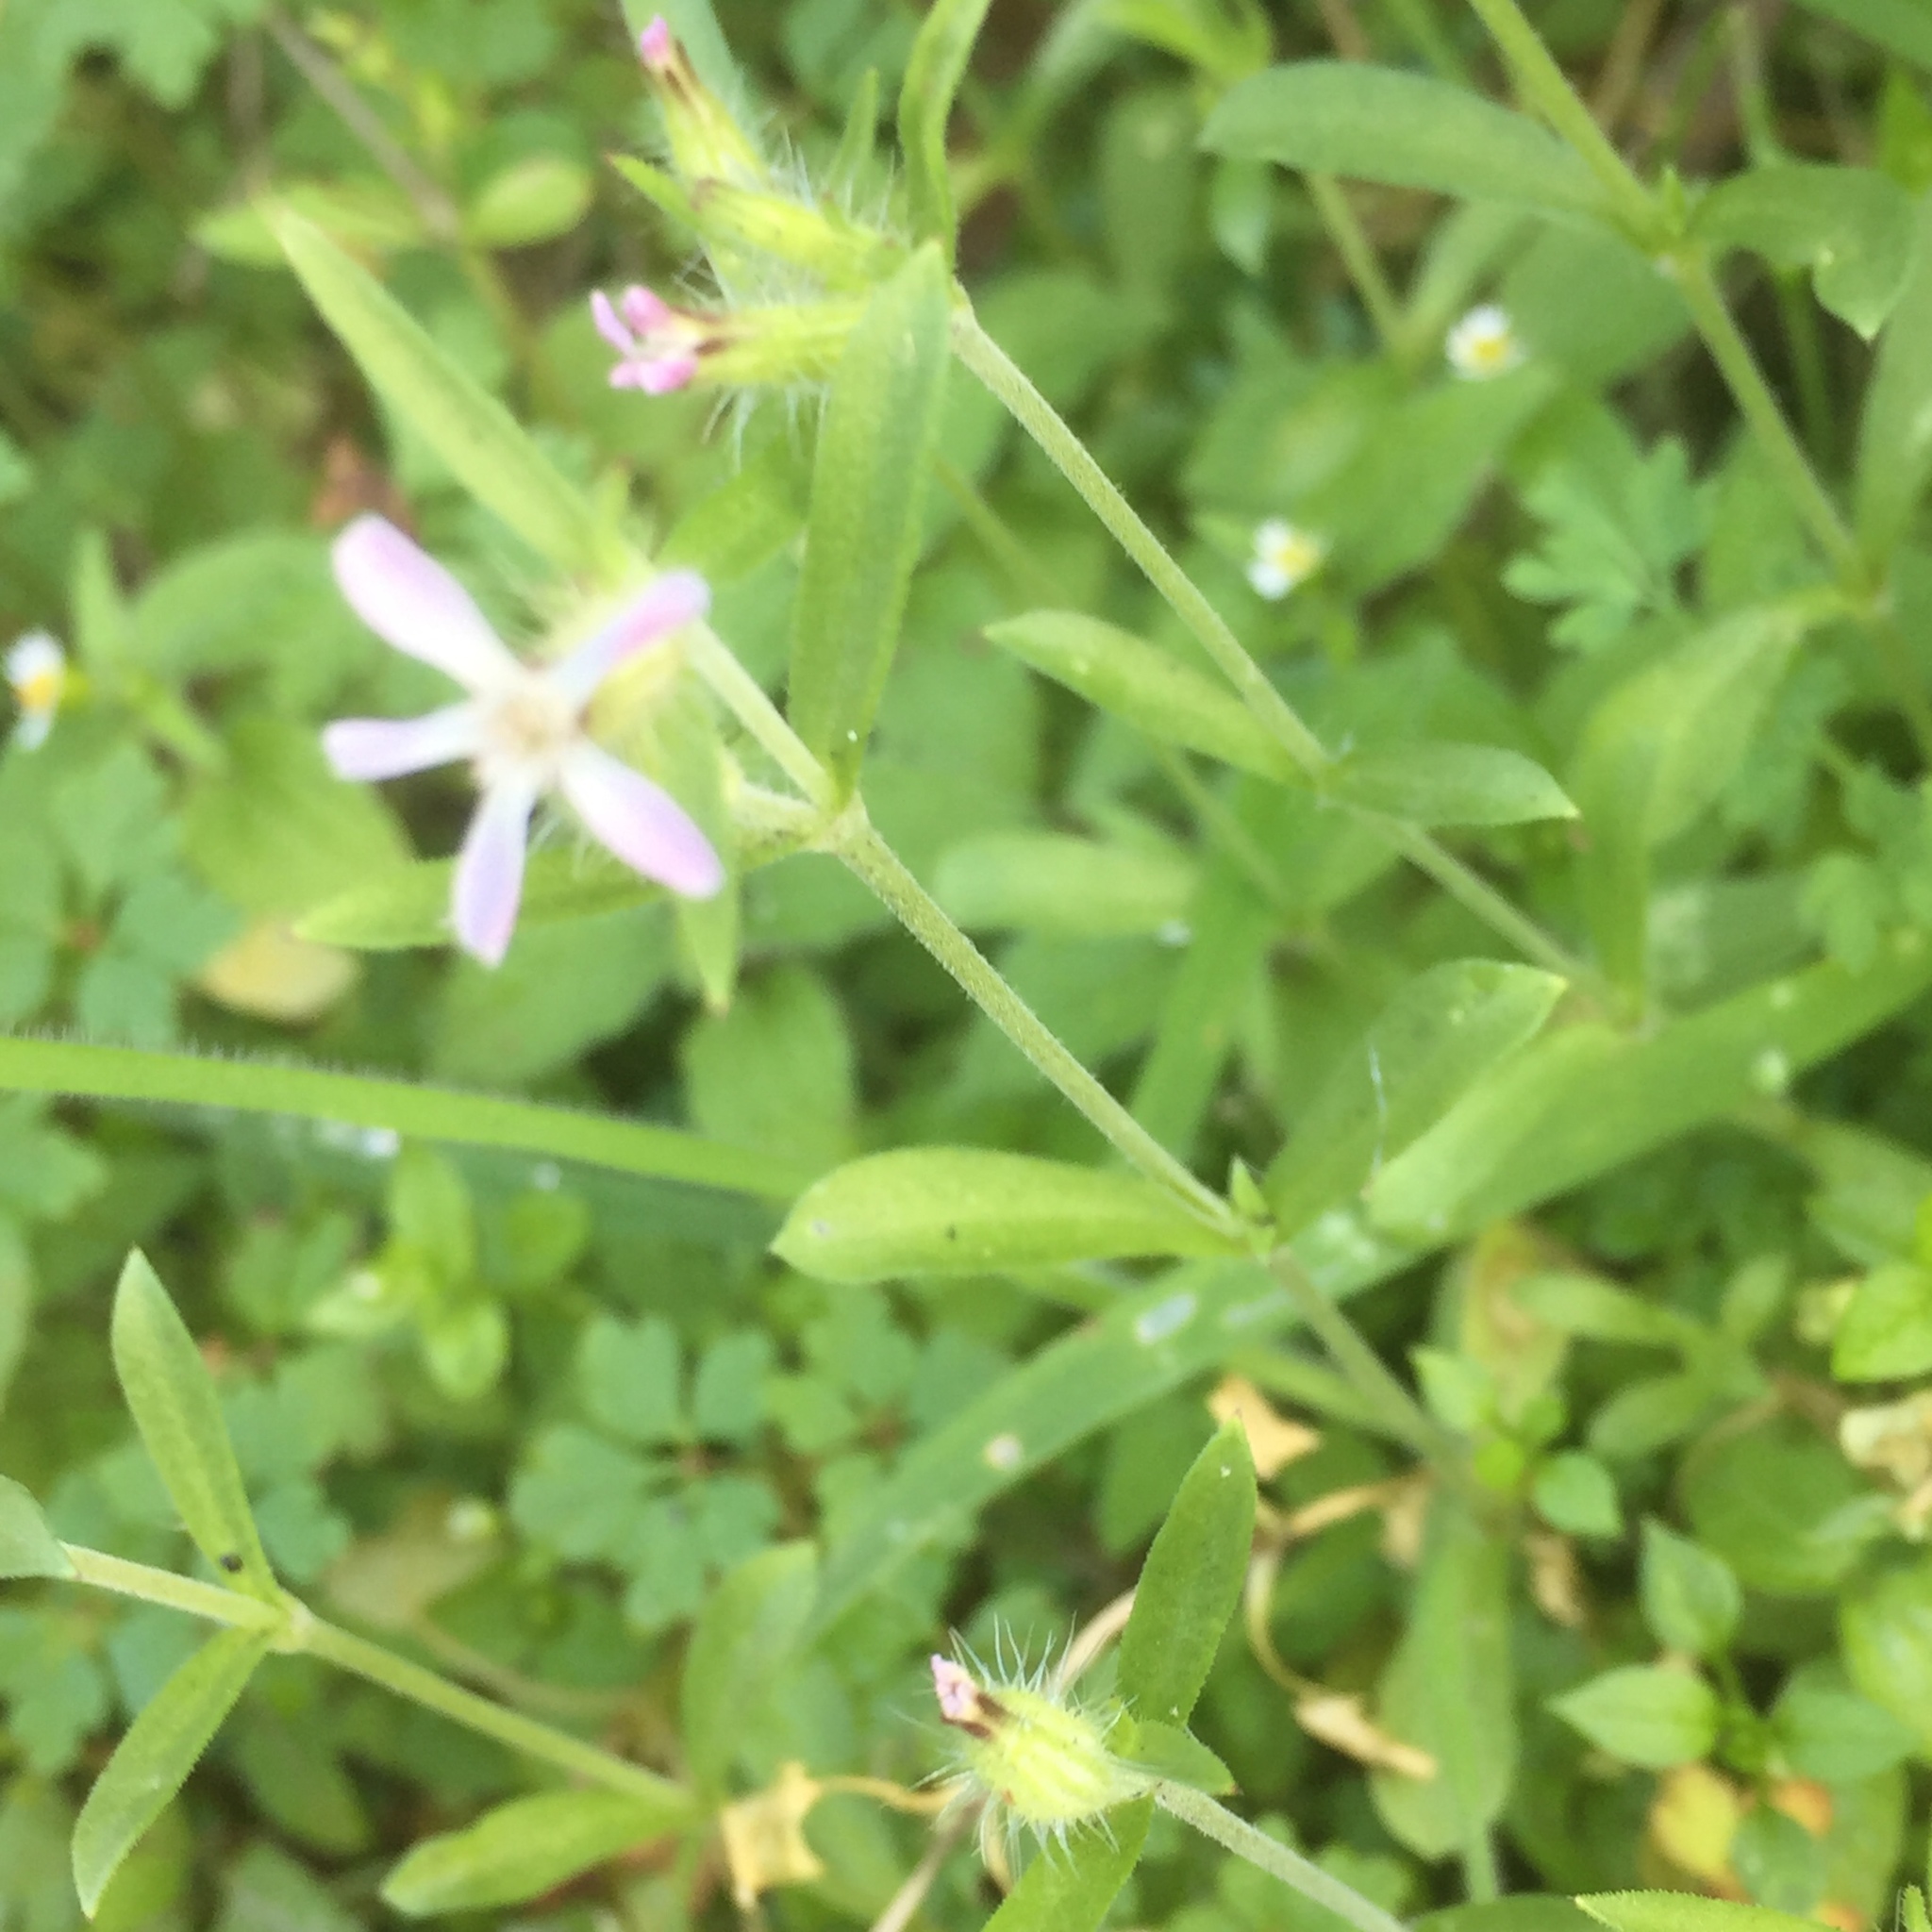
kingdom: Plantae
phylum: Tracheophyta
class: Magnoliopsida
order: Caryophyllales
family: Caryophyllaceae
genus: Silene
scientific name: Silene gallica
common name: Small-flowered catchfly
